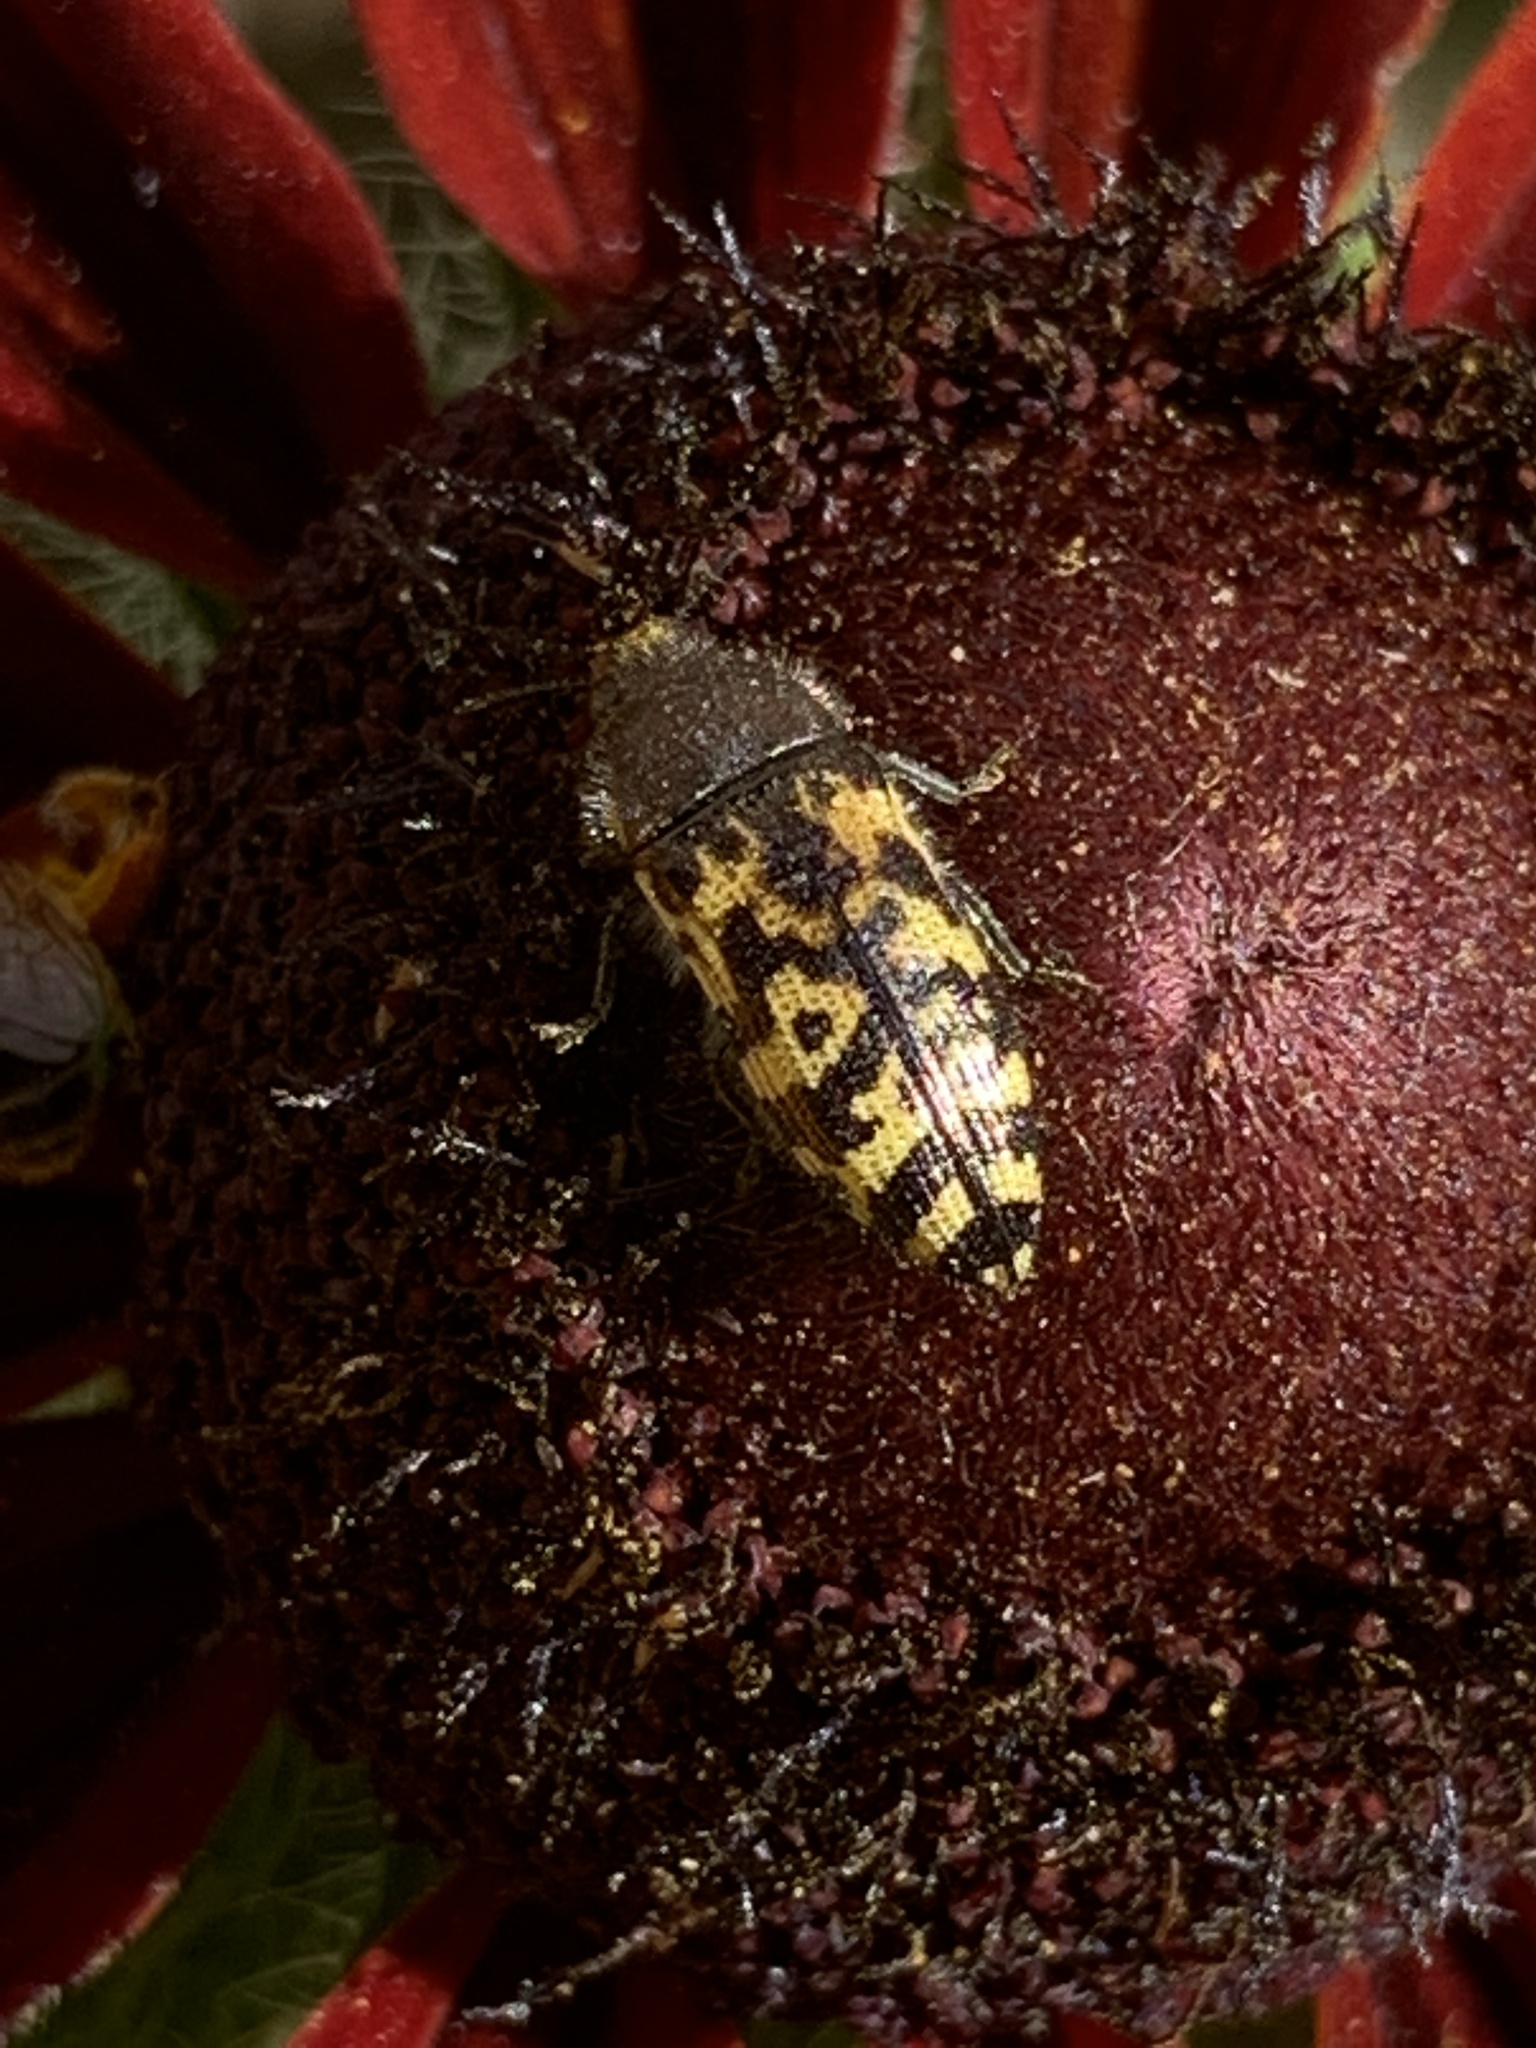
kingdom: Animalia
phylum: Arthropoda
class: Insecta
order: Coleoptera
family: Buprestidae
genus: Acmaeodera
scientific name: Acmaeodera mixta
